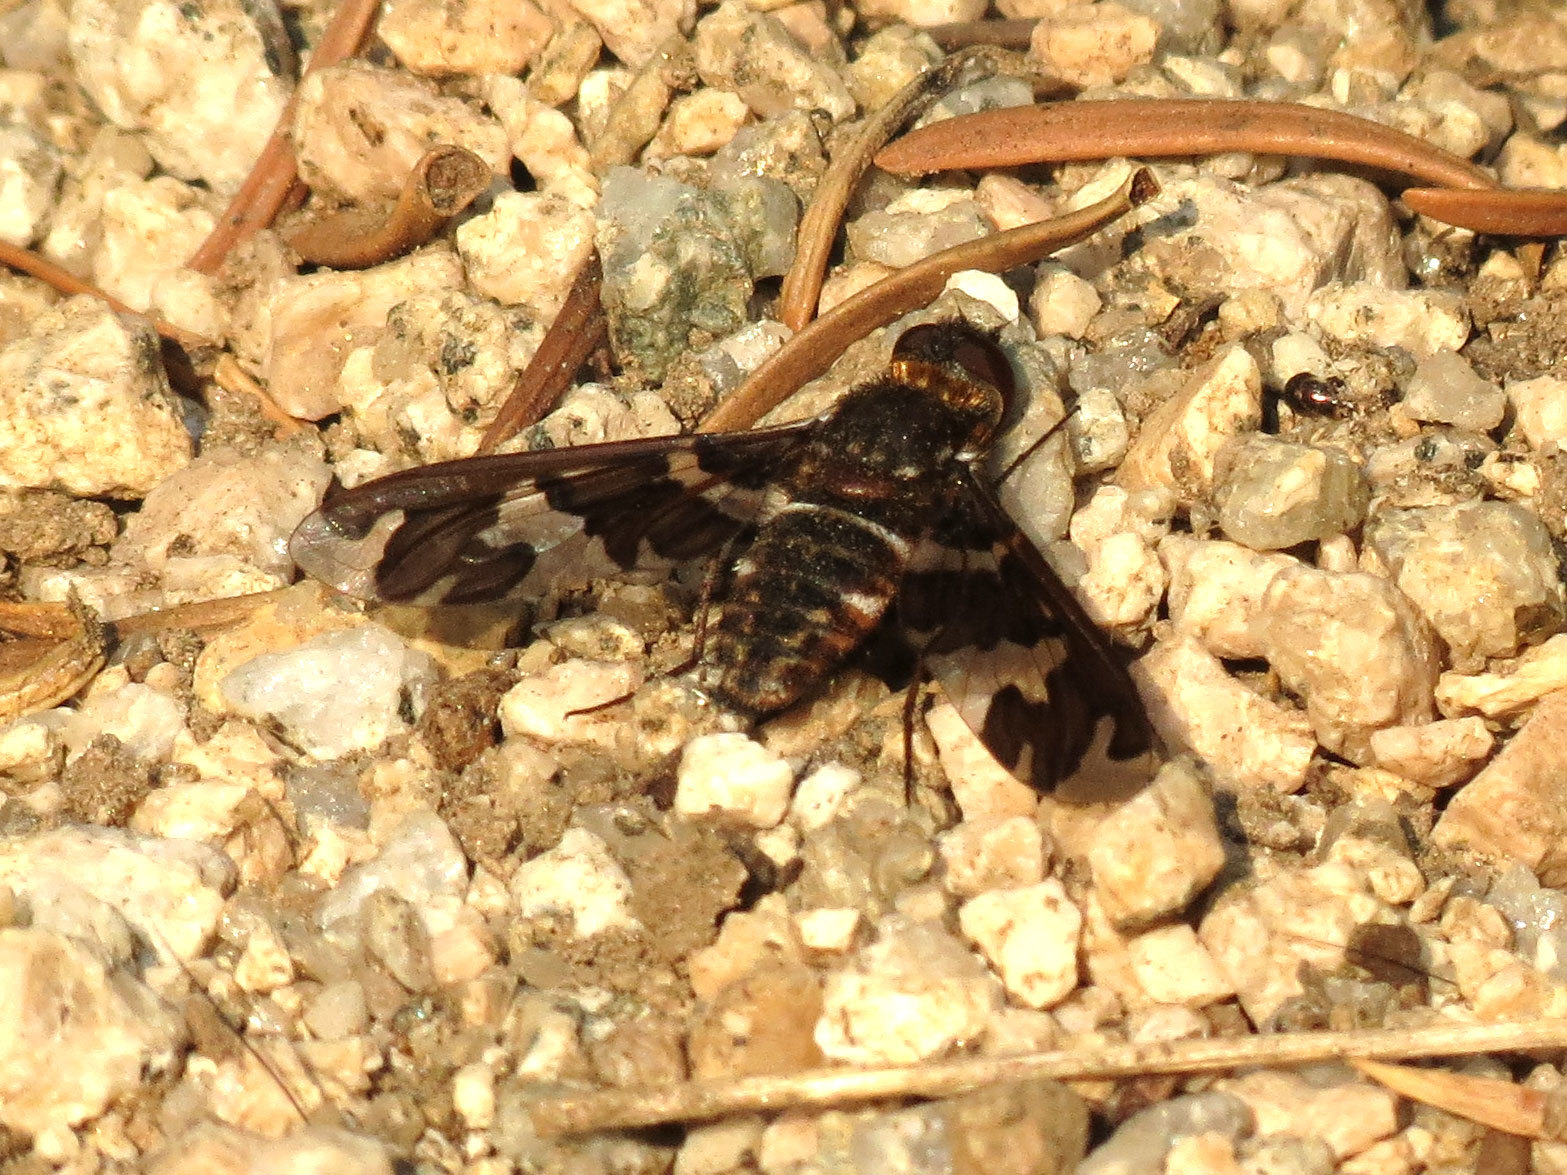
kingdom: Animalia
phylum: Arthropoda
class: Insecta
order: Diptera
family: Bombyliidae
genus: Exoprosopa
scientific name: Exoprosopa dorcadion
